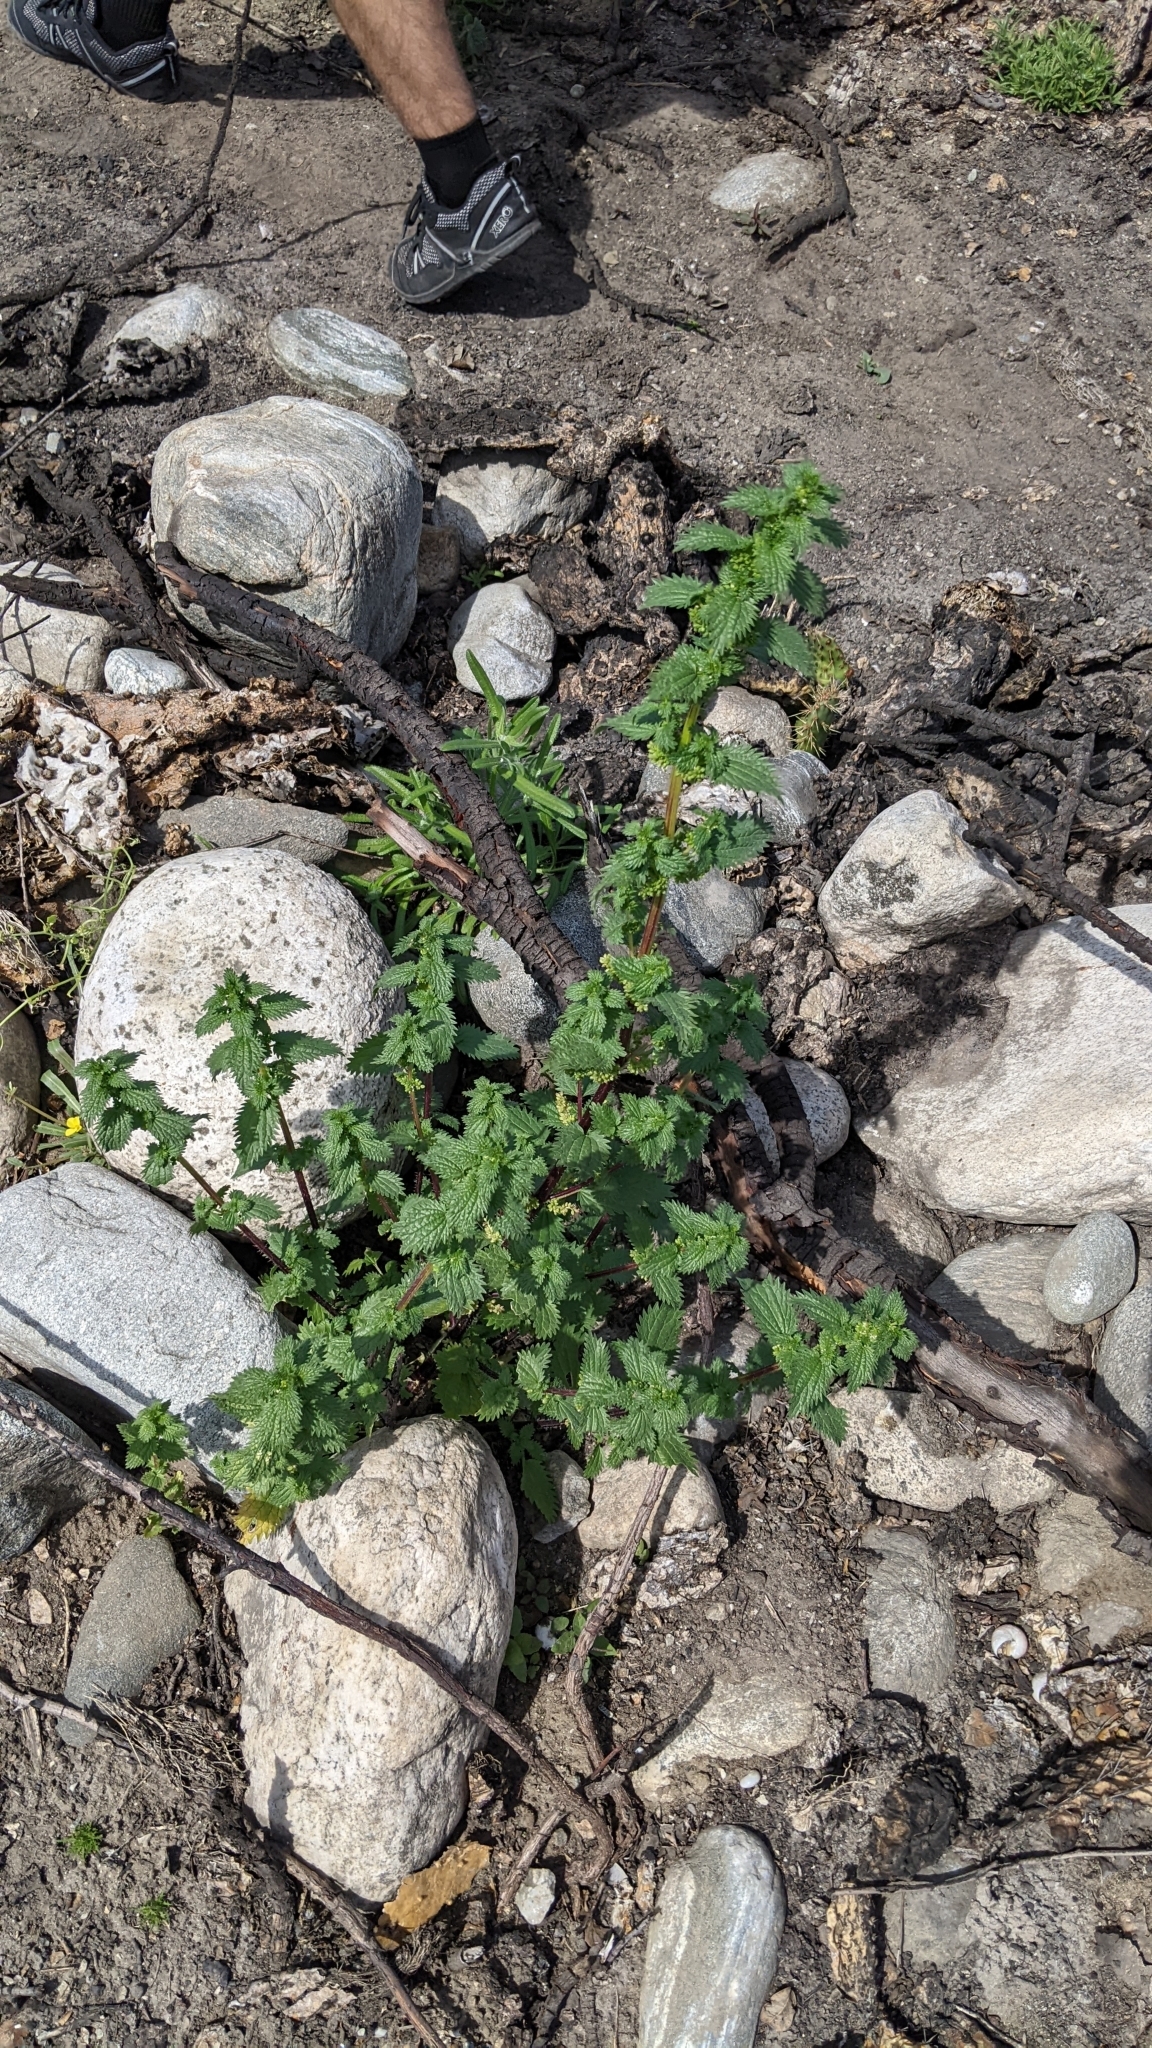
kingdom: Plantae
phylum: Tracheophyta
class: Magnoliopsida
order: Rosales
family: Urticaceae
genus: Urtica
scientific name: Urtica urens
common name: Dwarf nettle
